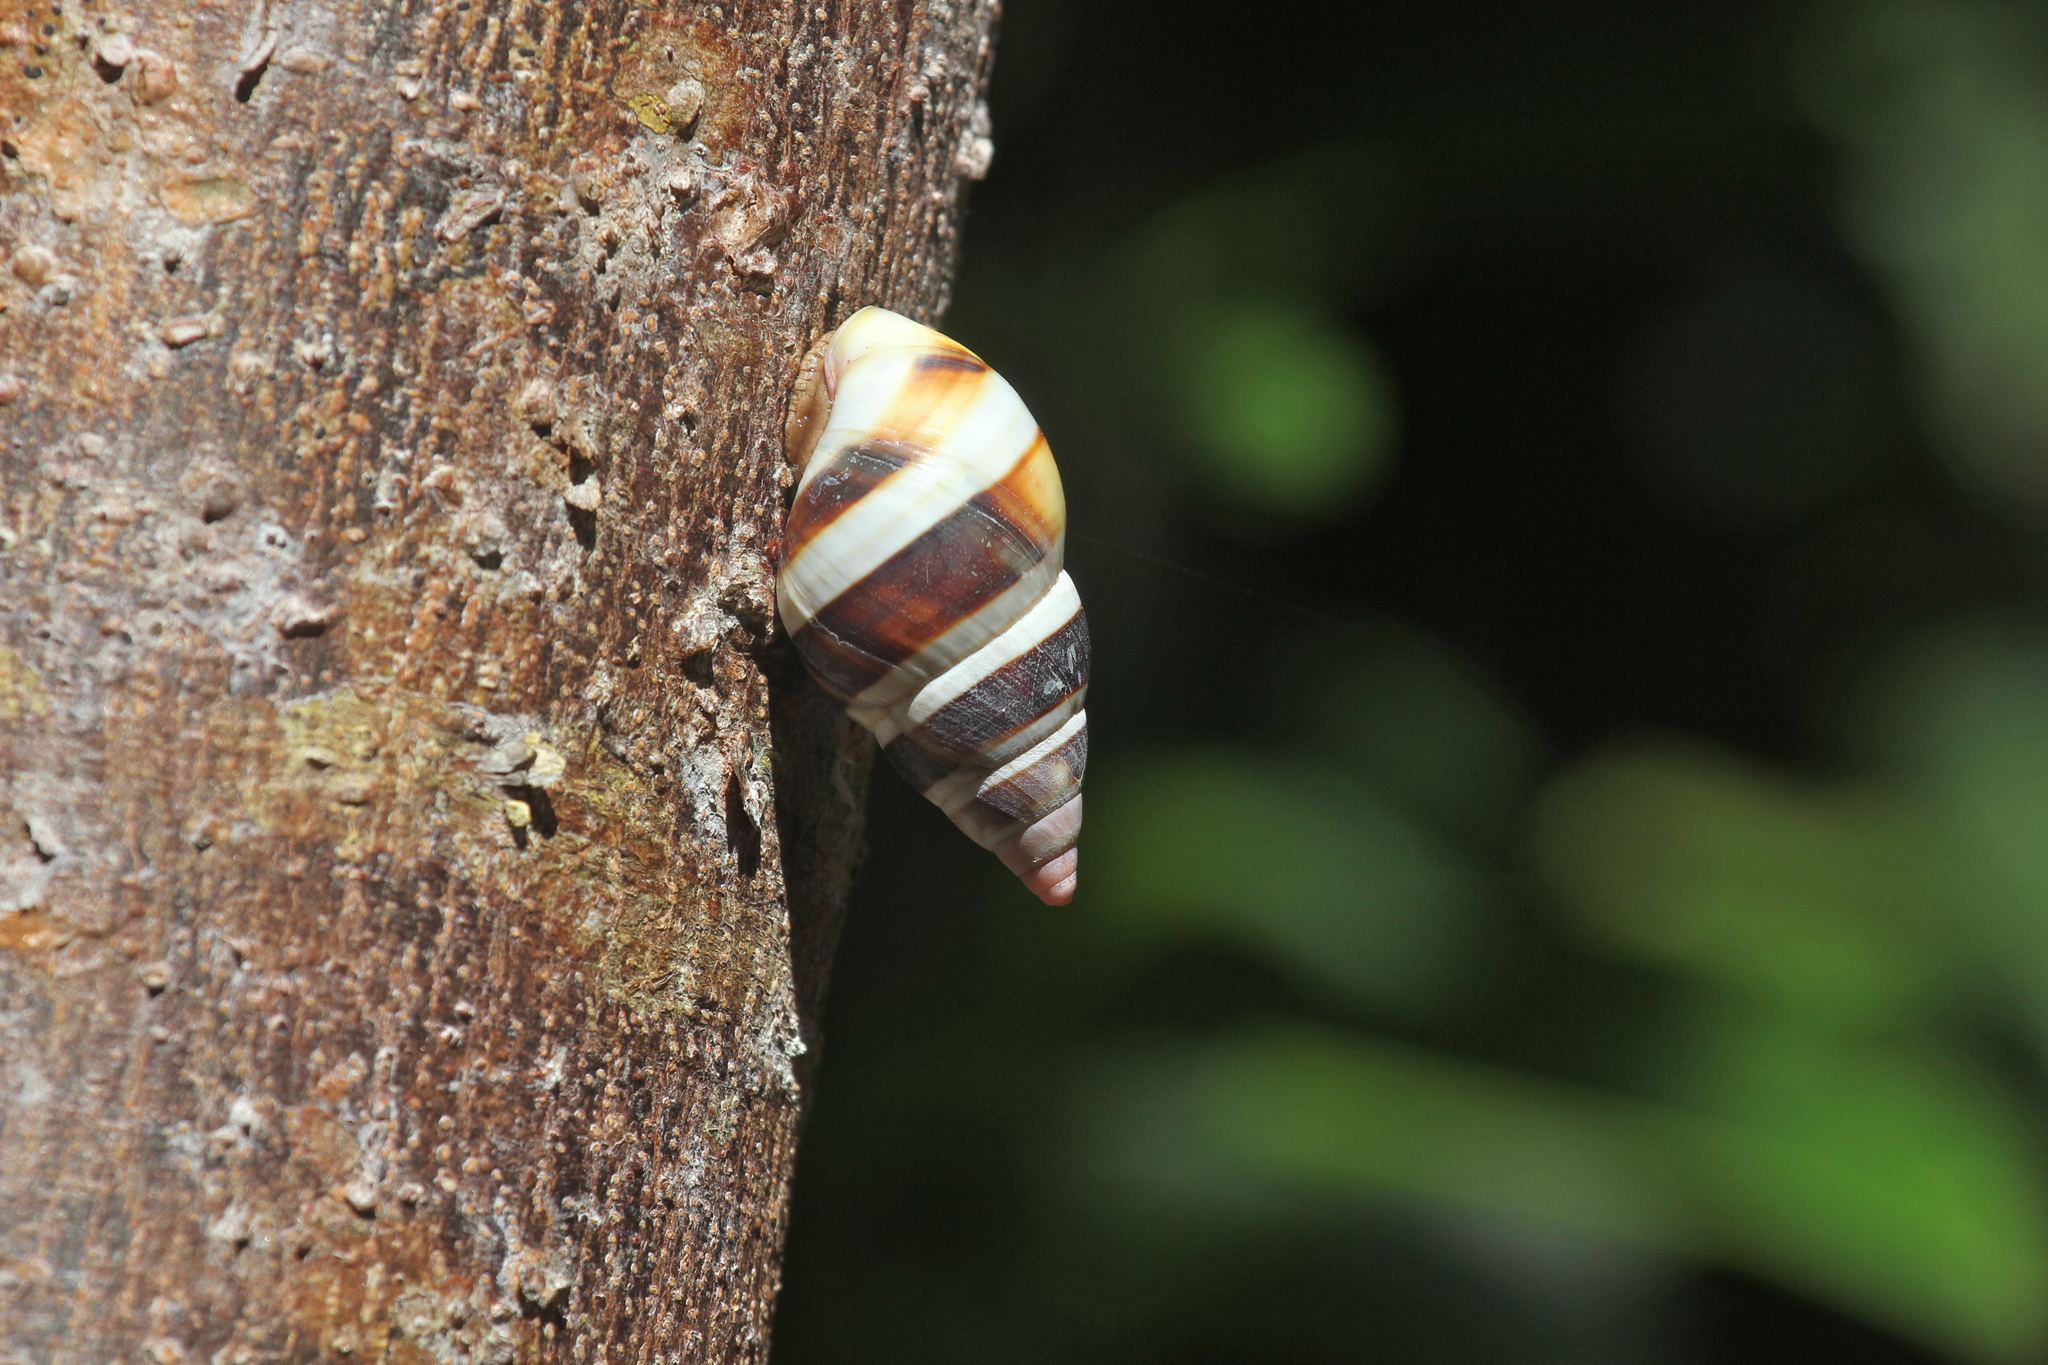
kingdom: Animalia
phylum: Mollusca
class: Gastropoda
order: Stylommatophora
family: Orthalicidae
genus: Liguus
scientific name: Liguus fasciatus
